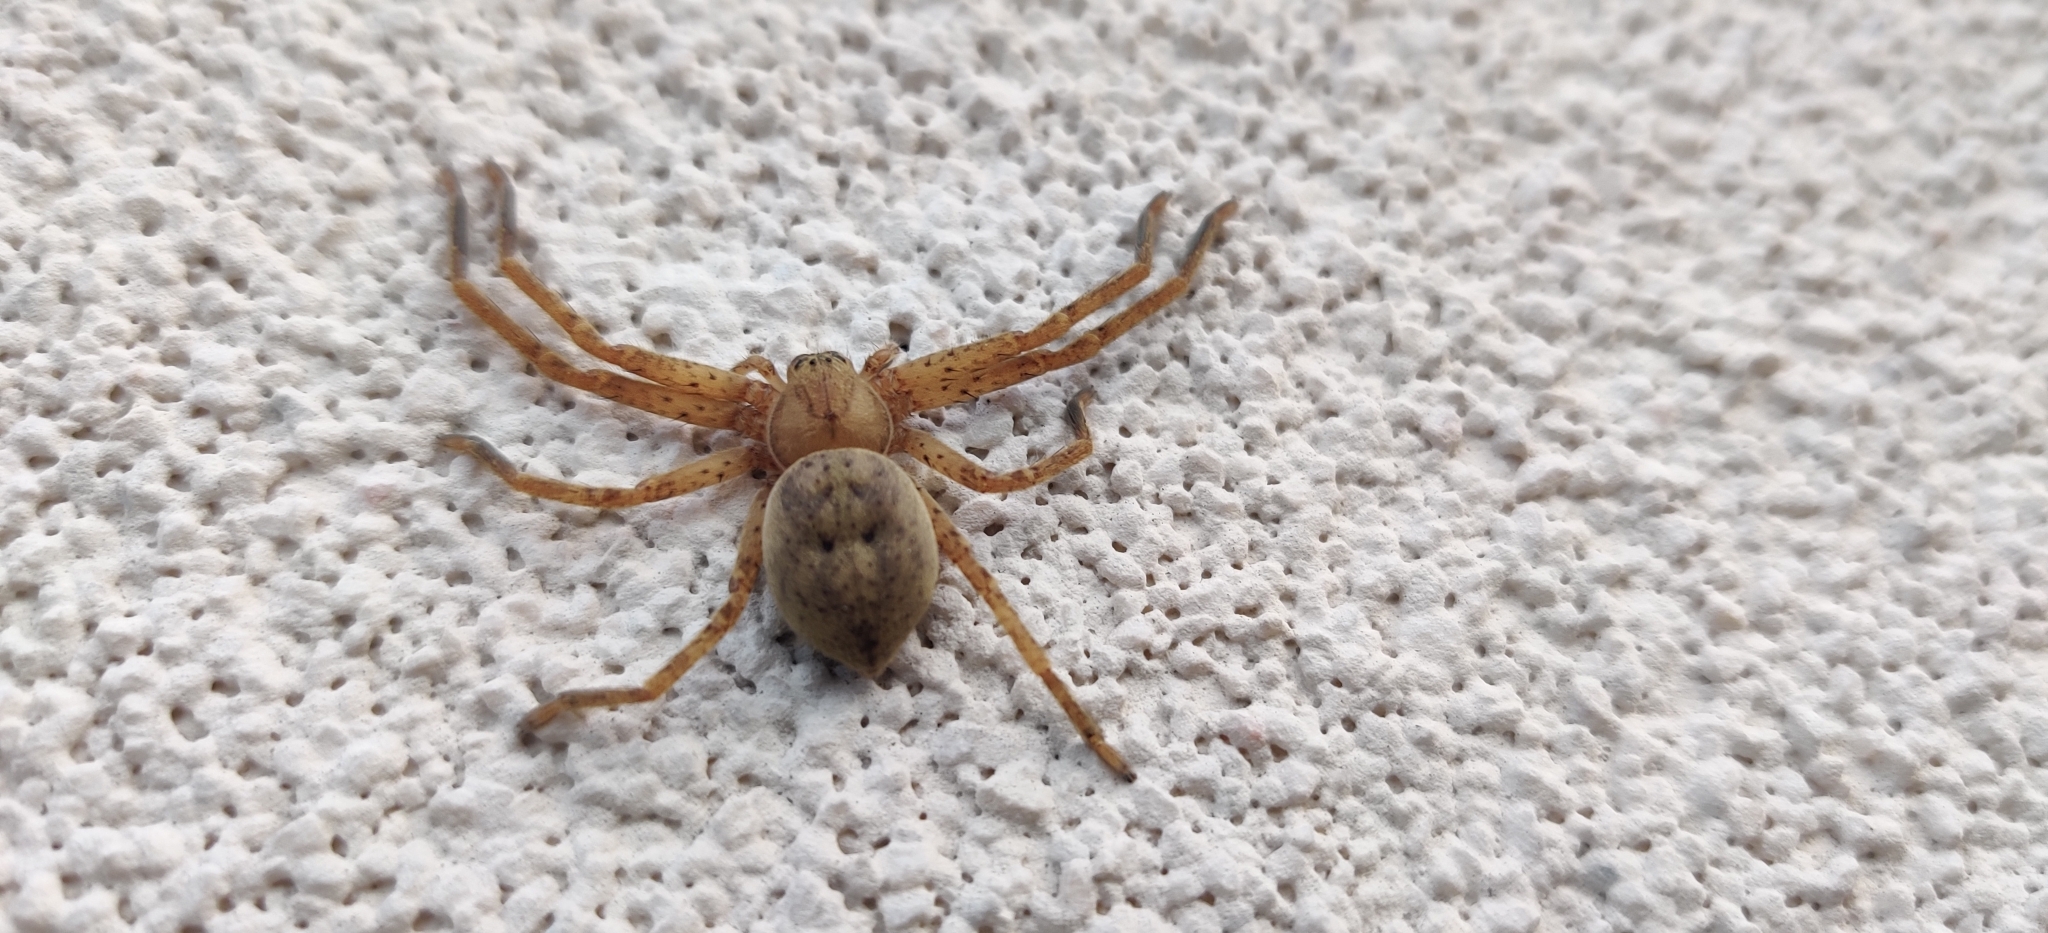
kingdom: Animalia
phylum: Arthropoda
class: Arachnida
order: Araneae
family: Sparassidae
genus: Olios
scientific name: Olios argelasius
